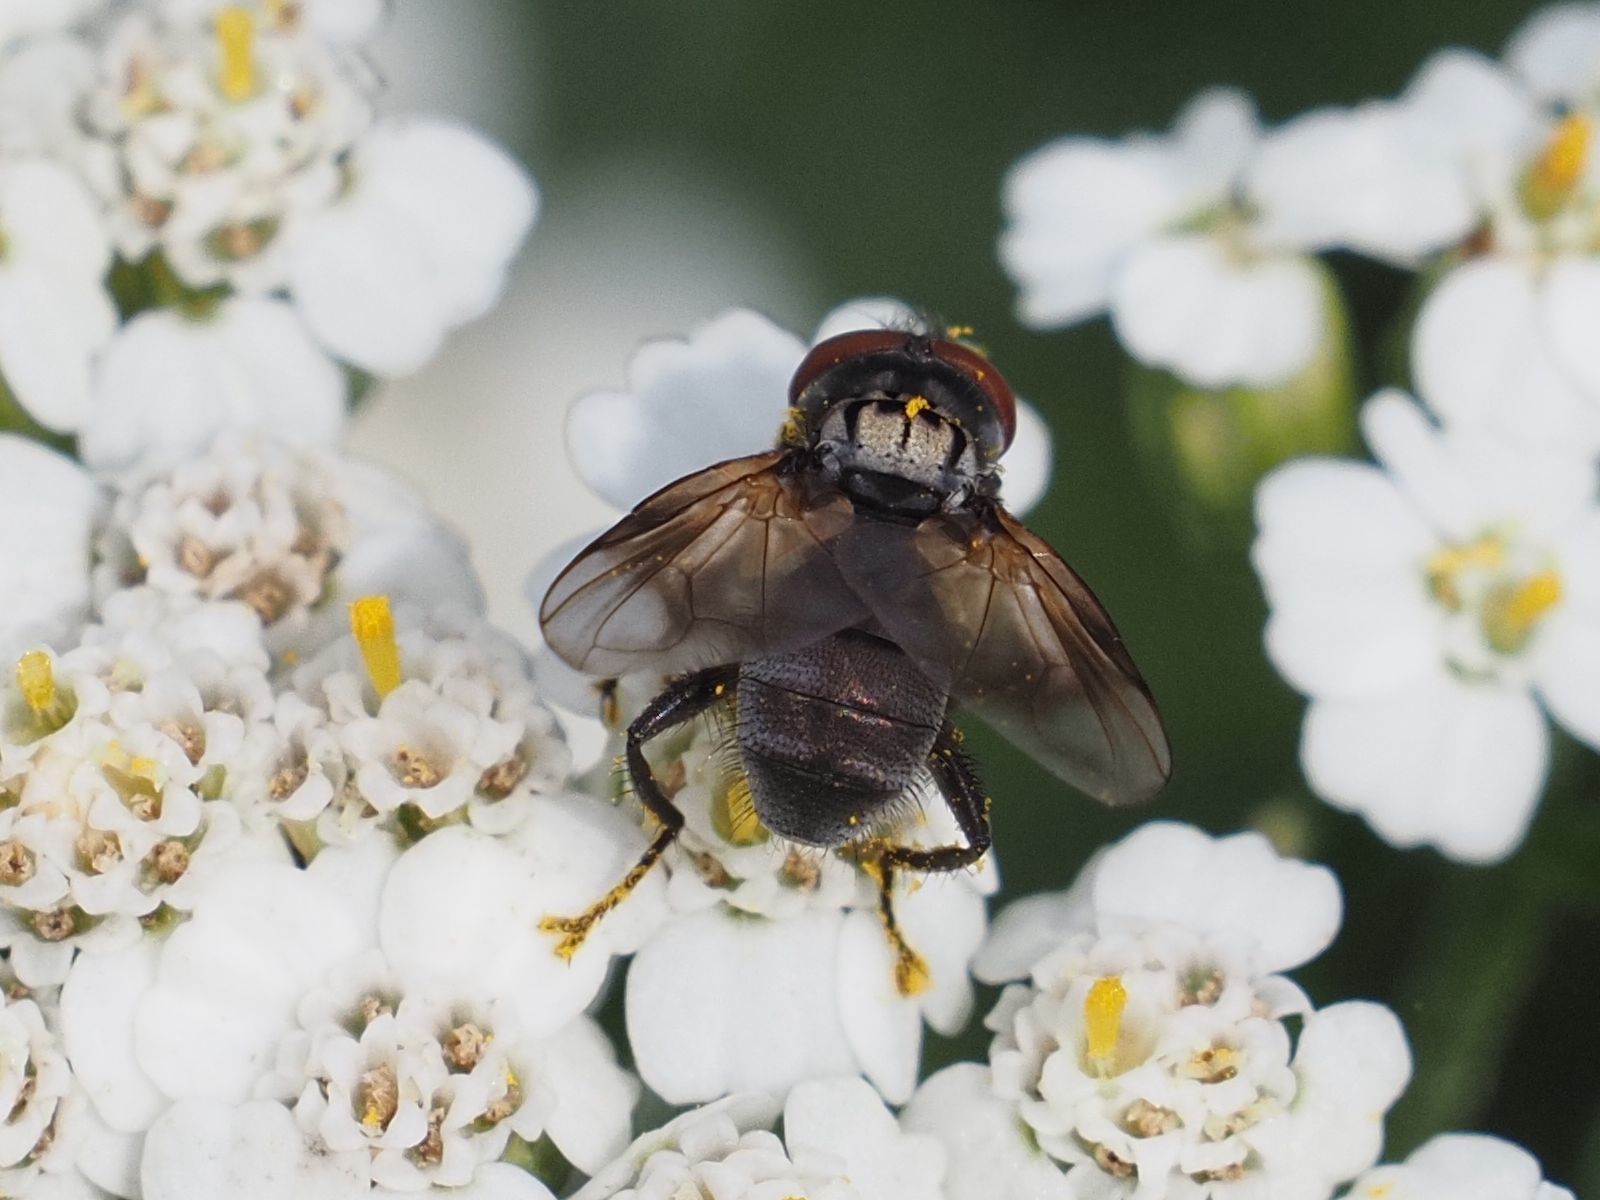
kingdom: Animalia
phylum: Arthropoda
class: Insecta
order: Diptera
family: Tachinidae
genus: Phasia
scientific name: Phasia obesa
